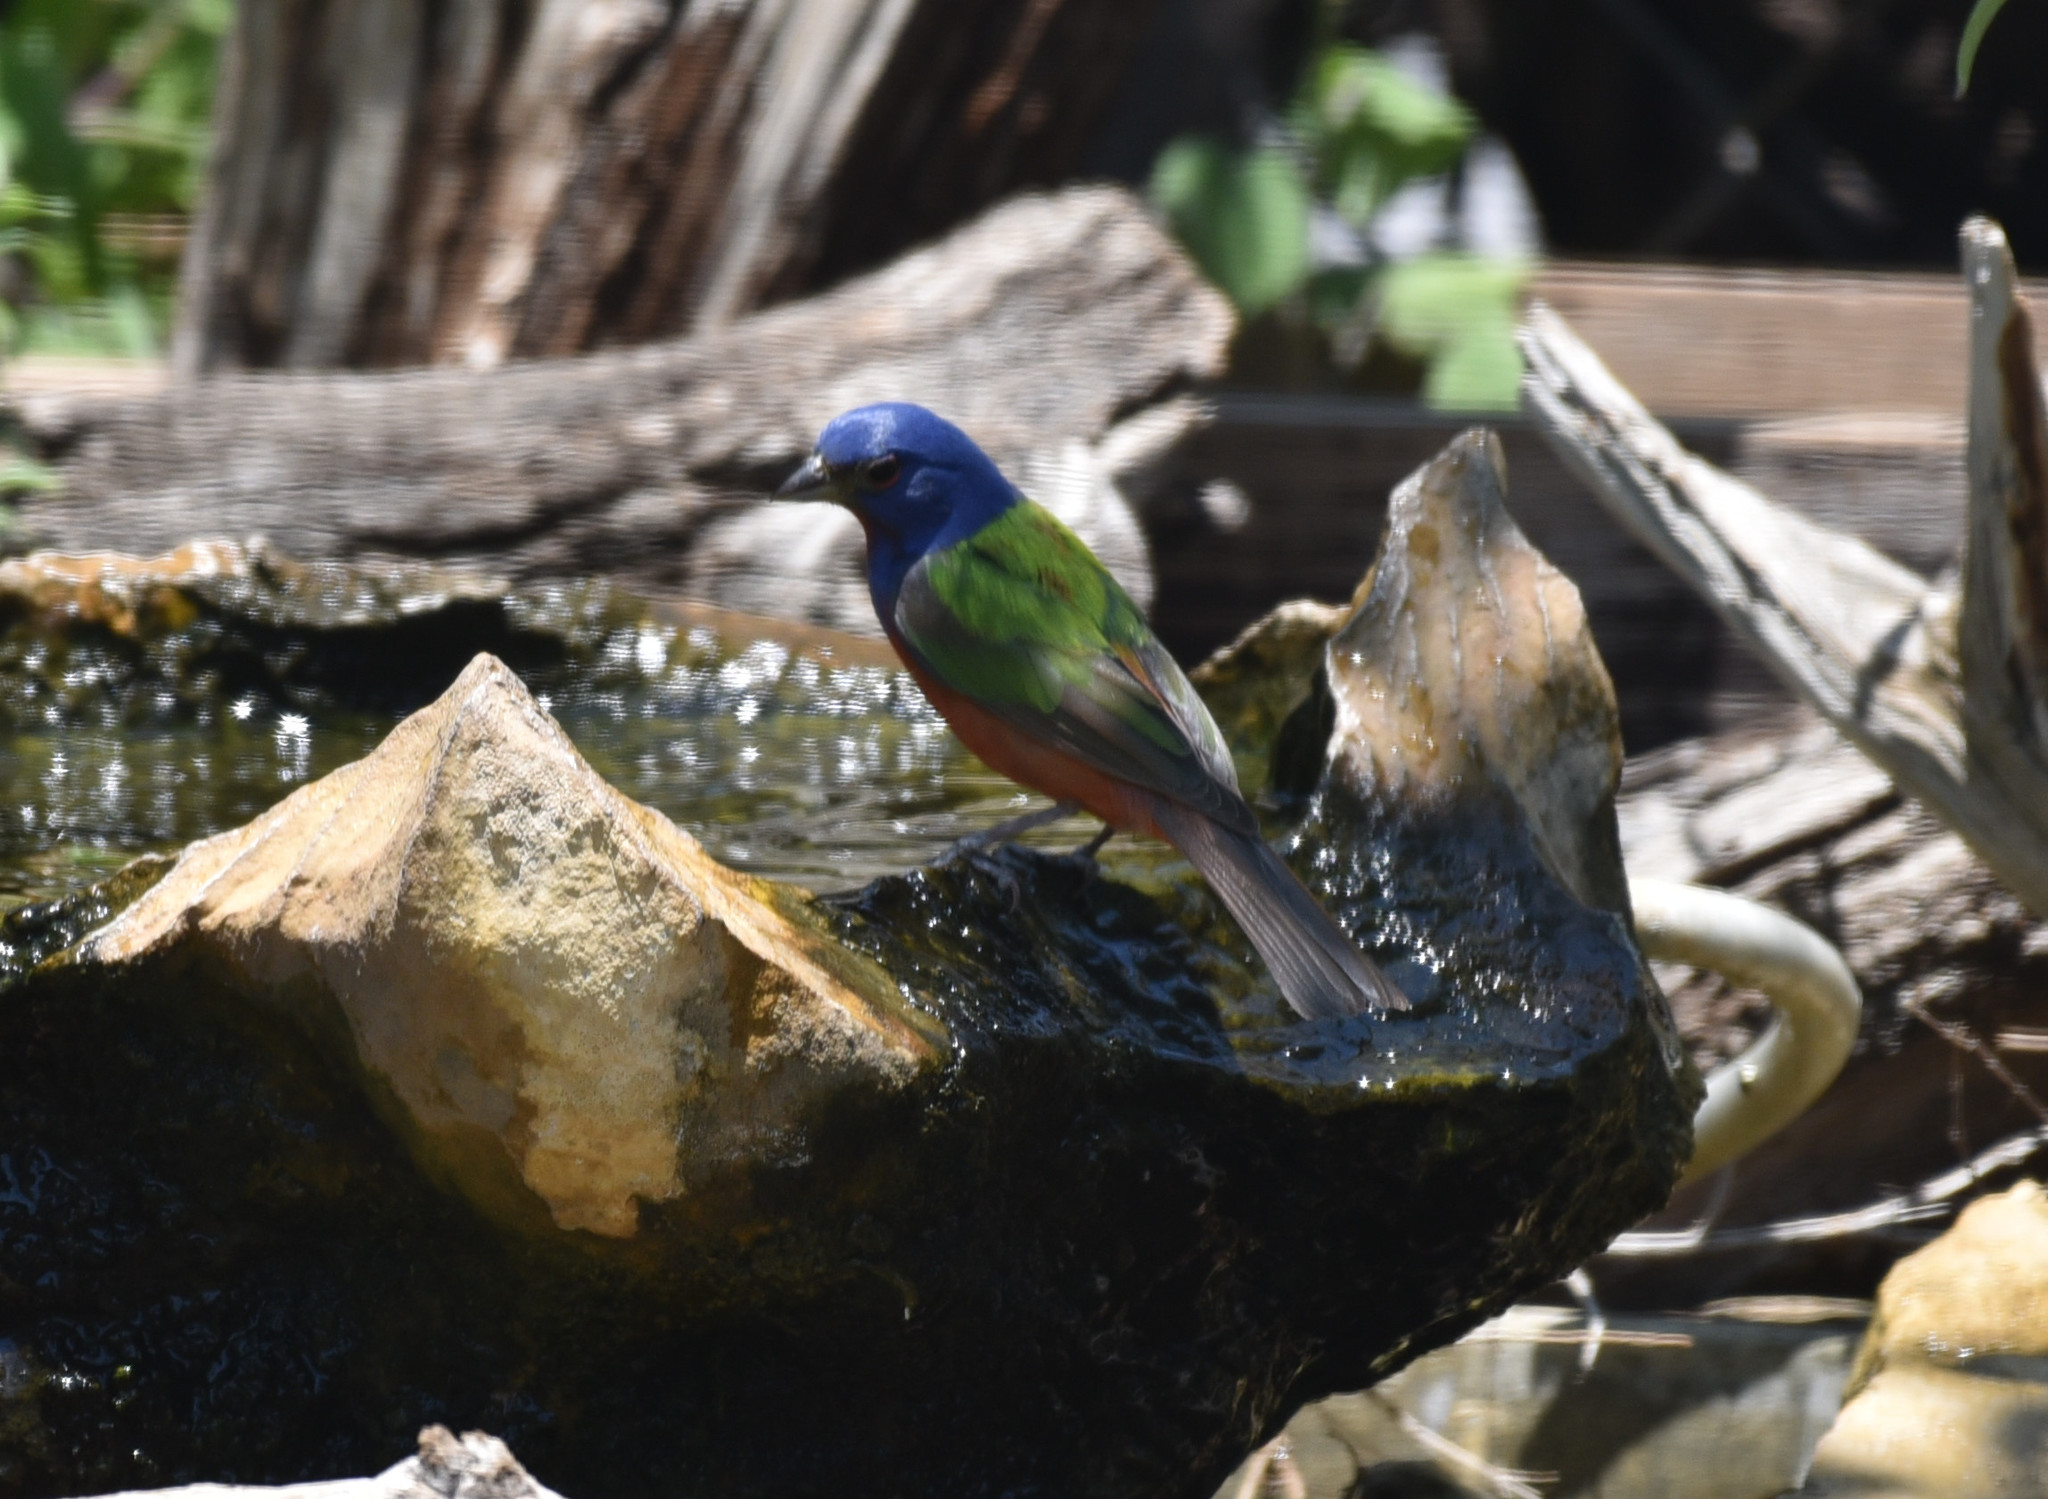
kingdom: Animalia
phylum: Chordata
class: Aves
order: Passeriformes
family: Cardinalidae
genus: Passerina
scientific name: Passerina ciris
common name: Painted bunting
